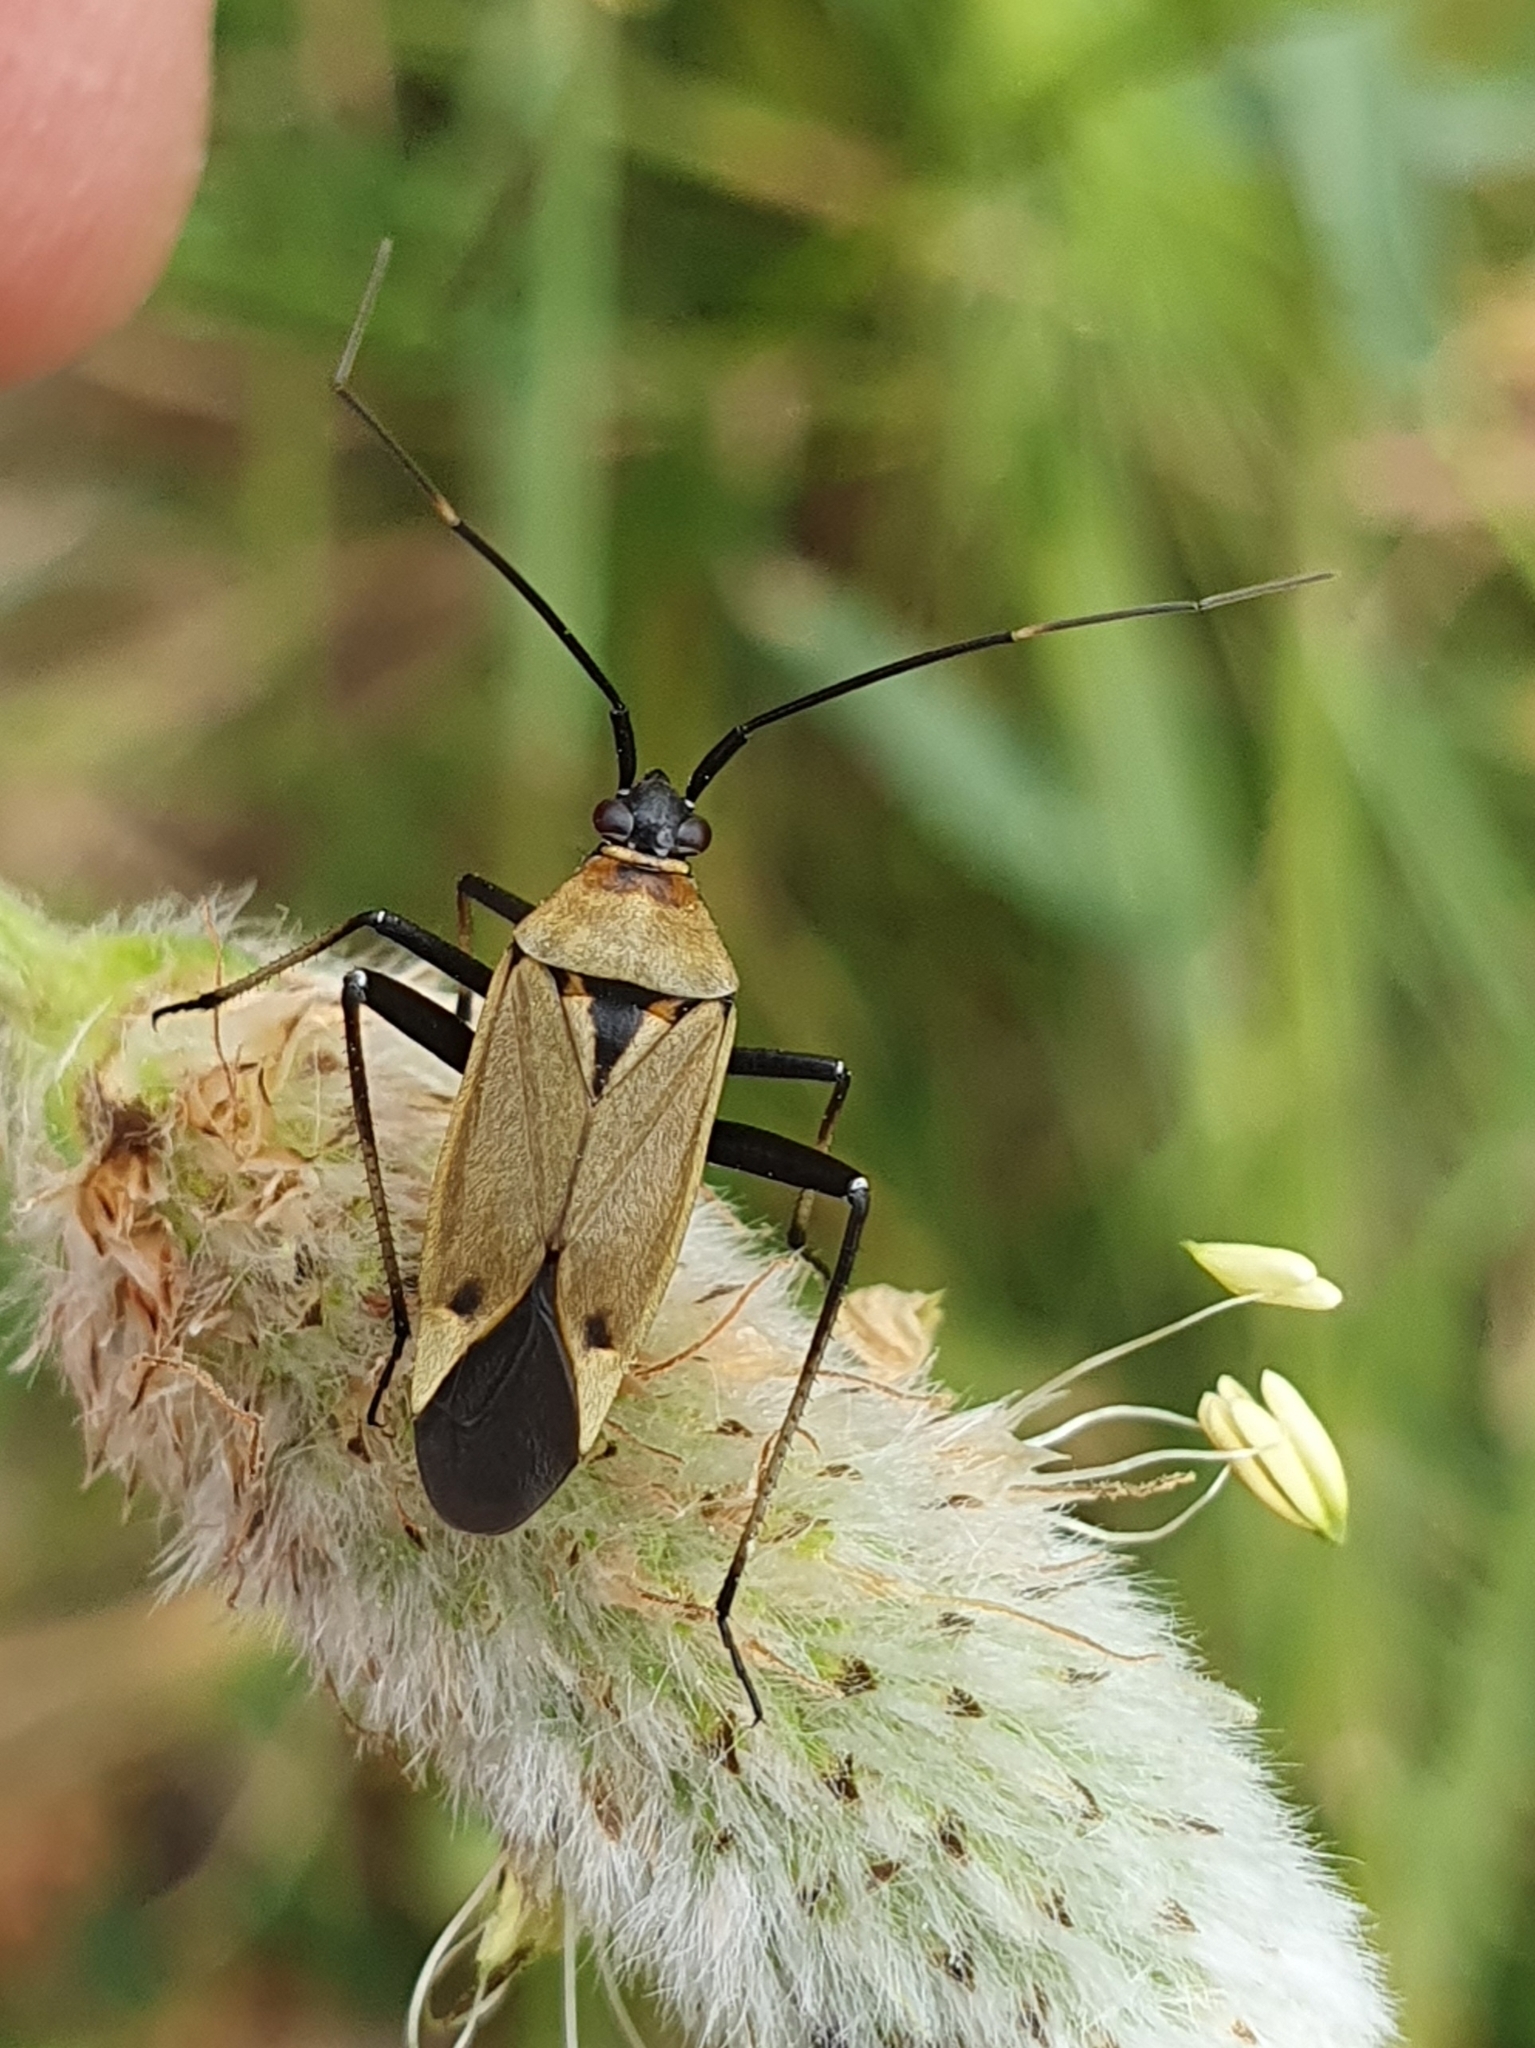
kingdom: Animalia
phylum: Arthropoda
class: Insecta
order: Hemiptera
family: Miridae
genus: Calocoris
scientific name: Calocoris nemoralis
